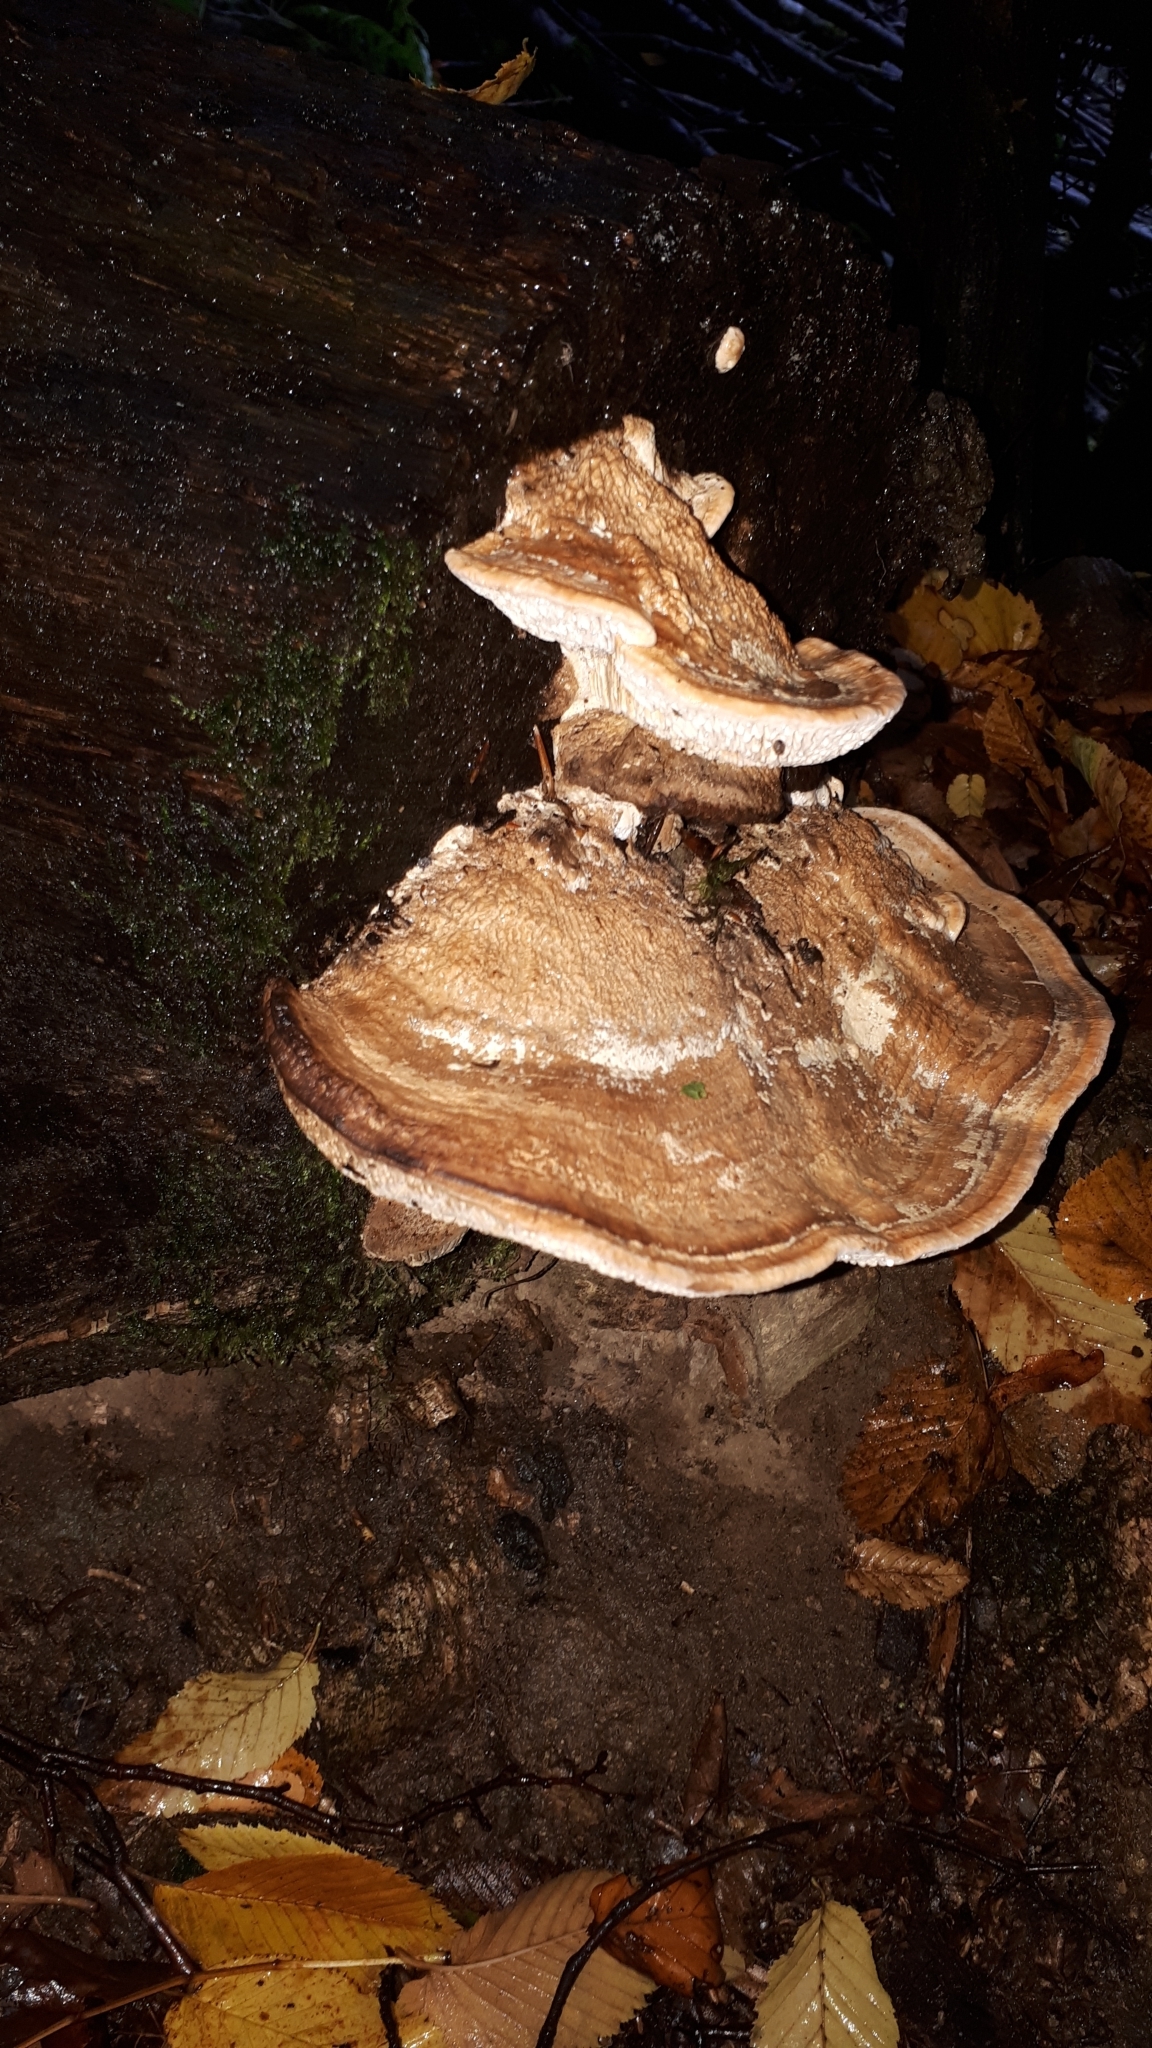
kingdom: Fungi
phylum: Basidiomycota
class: Agaricomycetes
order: Polyporales
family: Fomitopsidaceae
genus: Fomitopsis
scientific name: Fomitopsis
